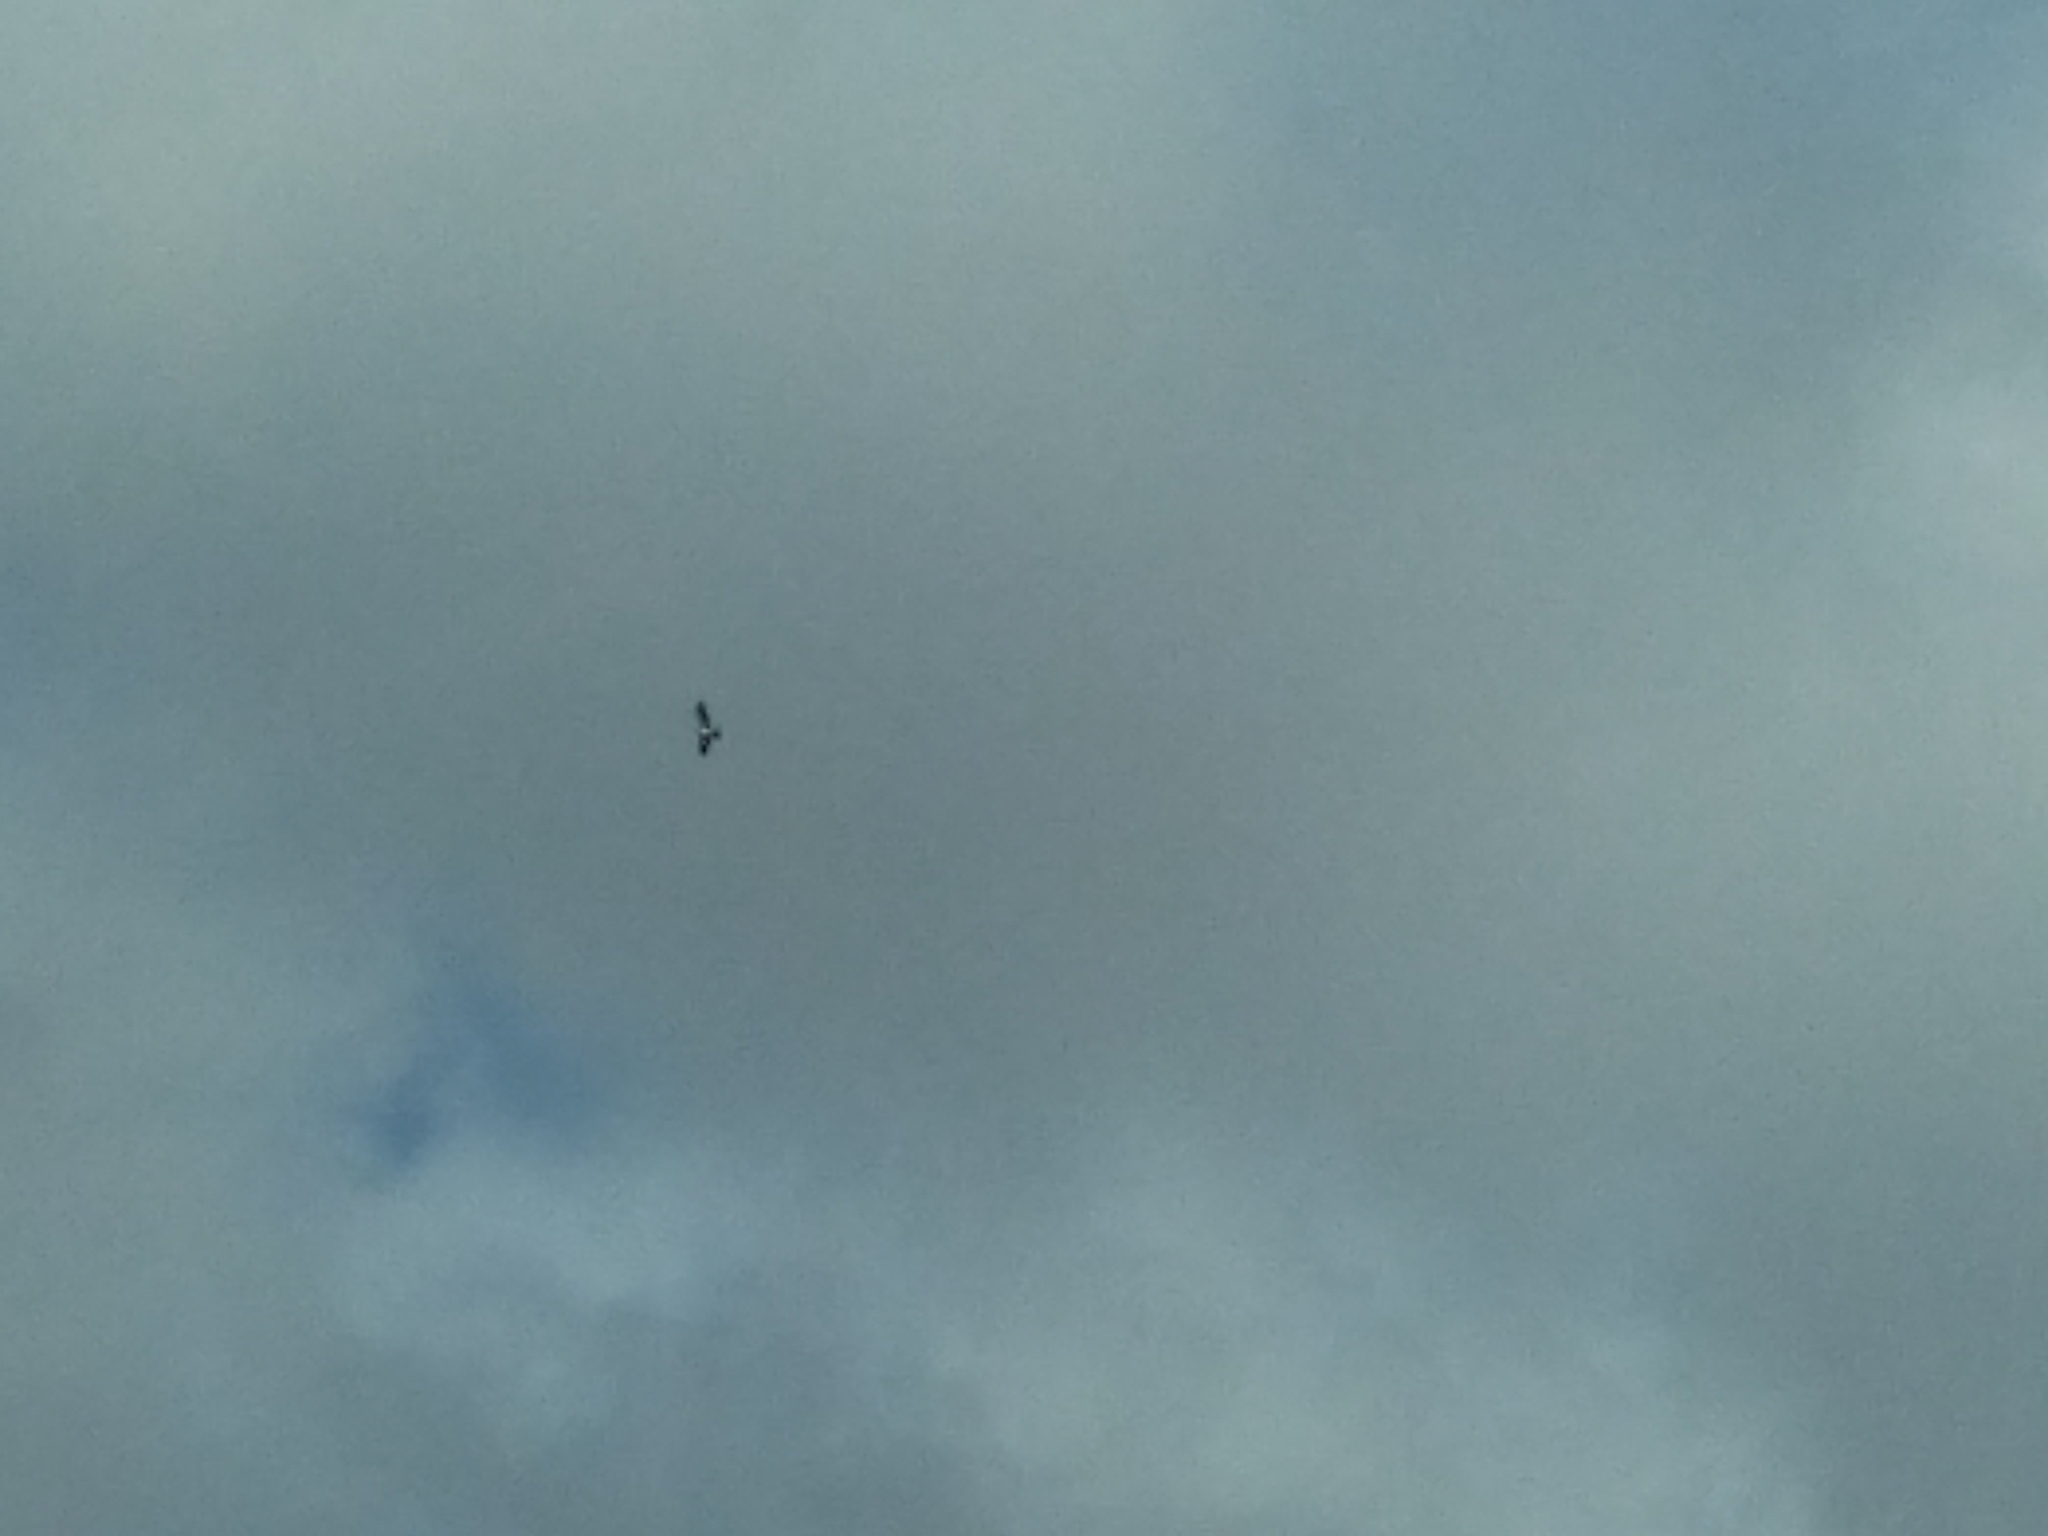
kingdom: Animalia
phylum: Chordata
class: Aves
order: Accipitriformes
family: Accipitridae
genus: Hieraaetus
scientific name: Hieraaetus pennatus
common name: Booted eagle
